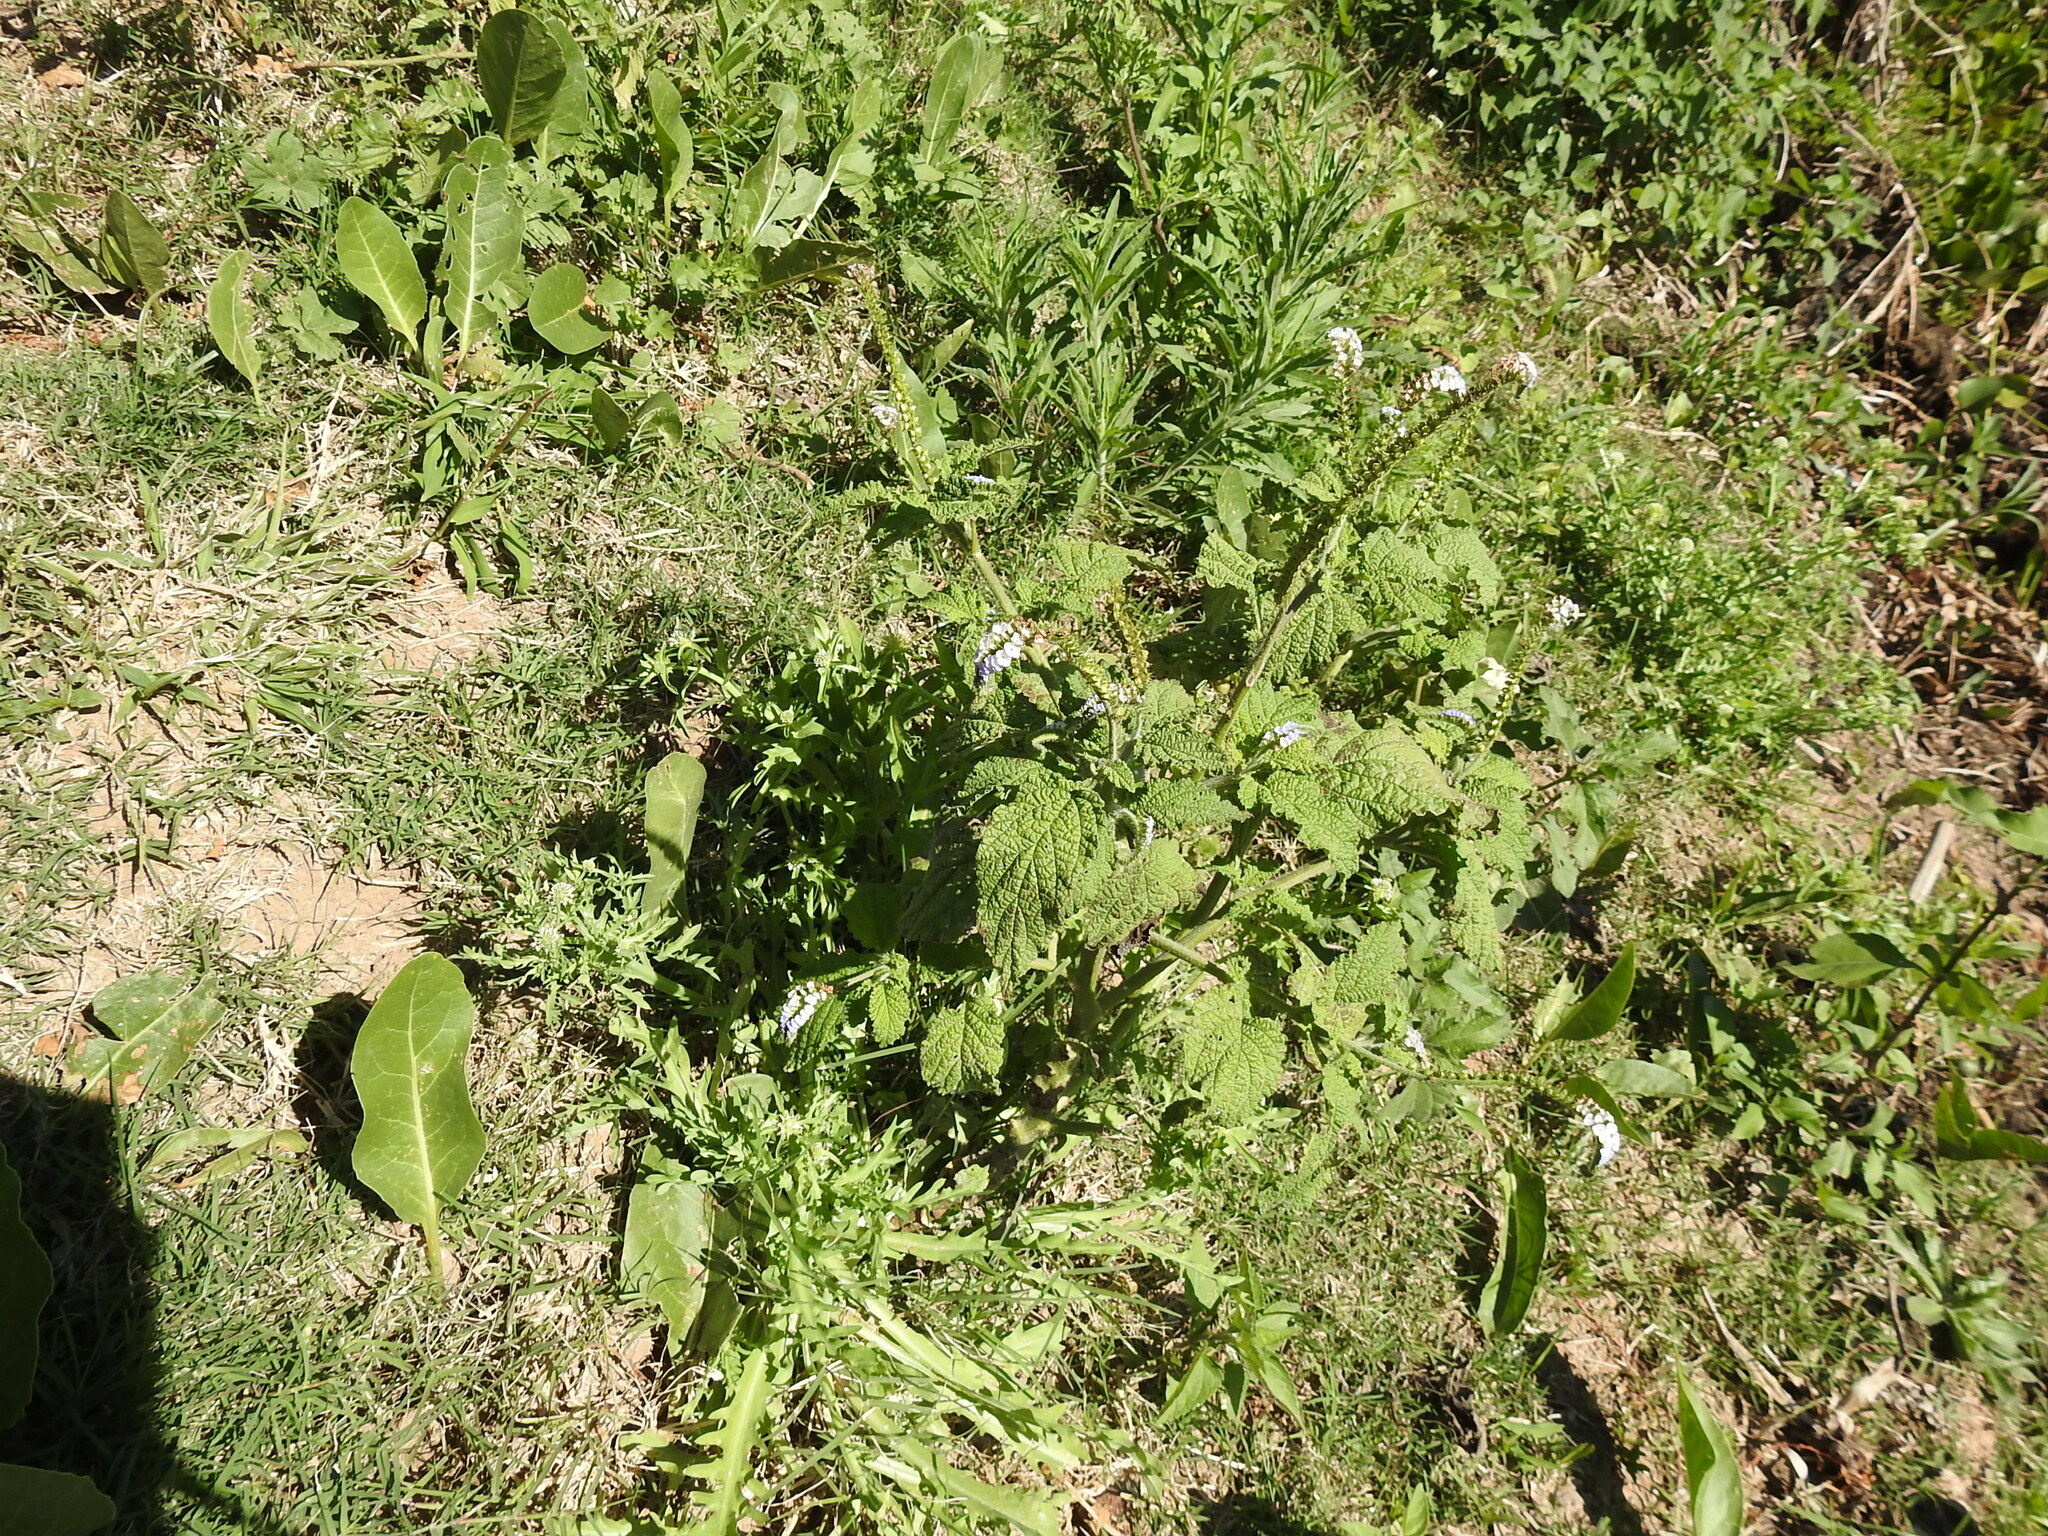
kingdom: Plantae
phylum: Tracheophyta
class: Magnoliopsida
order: Boraginales
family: Heliotropiaceae
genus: Heliotropium
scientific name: Heliotropium elongatum
